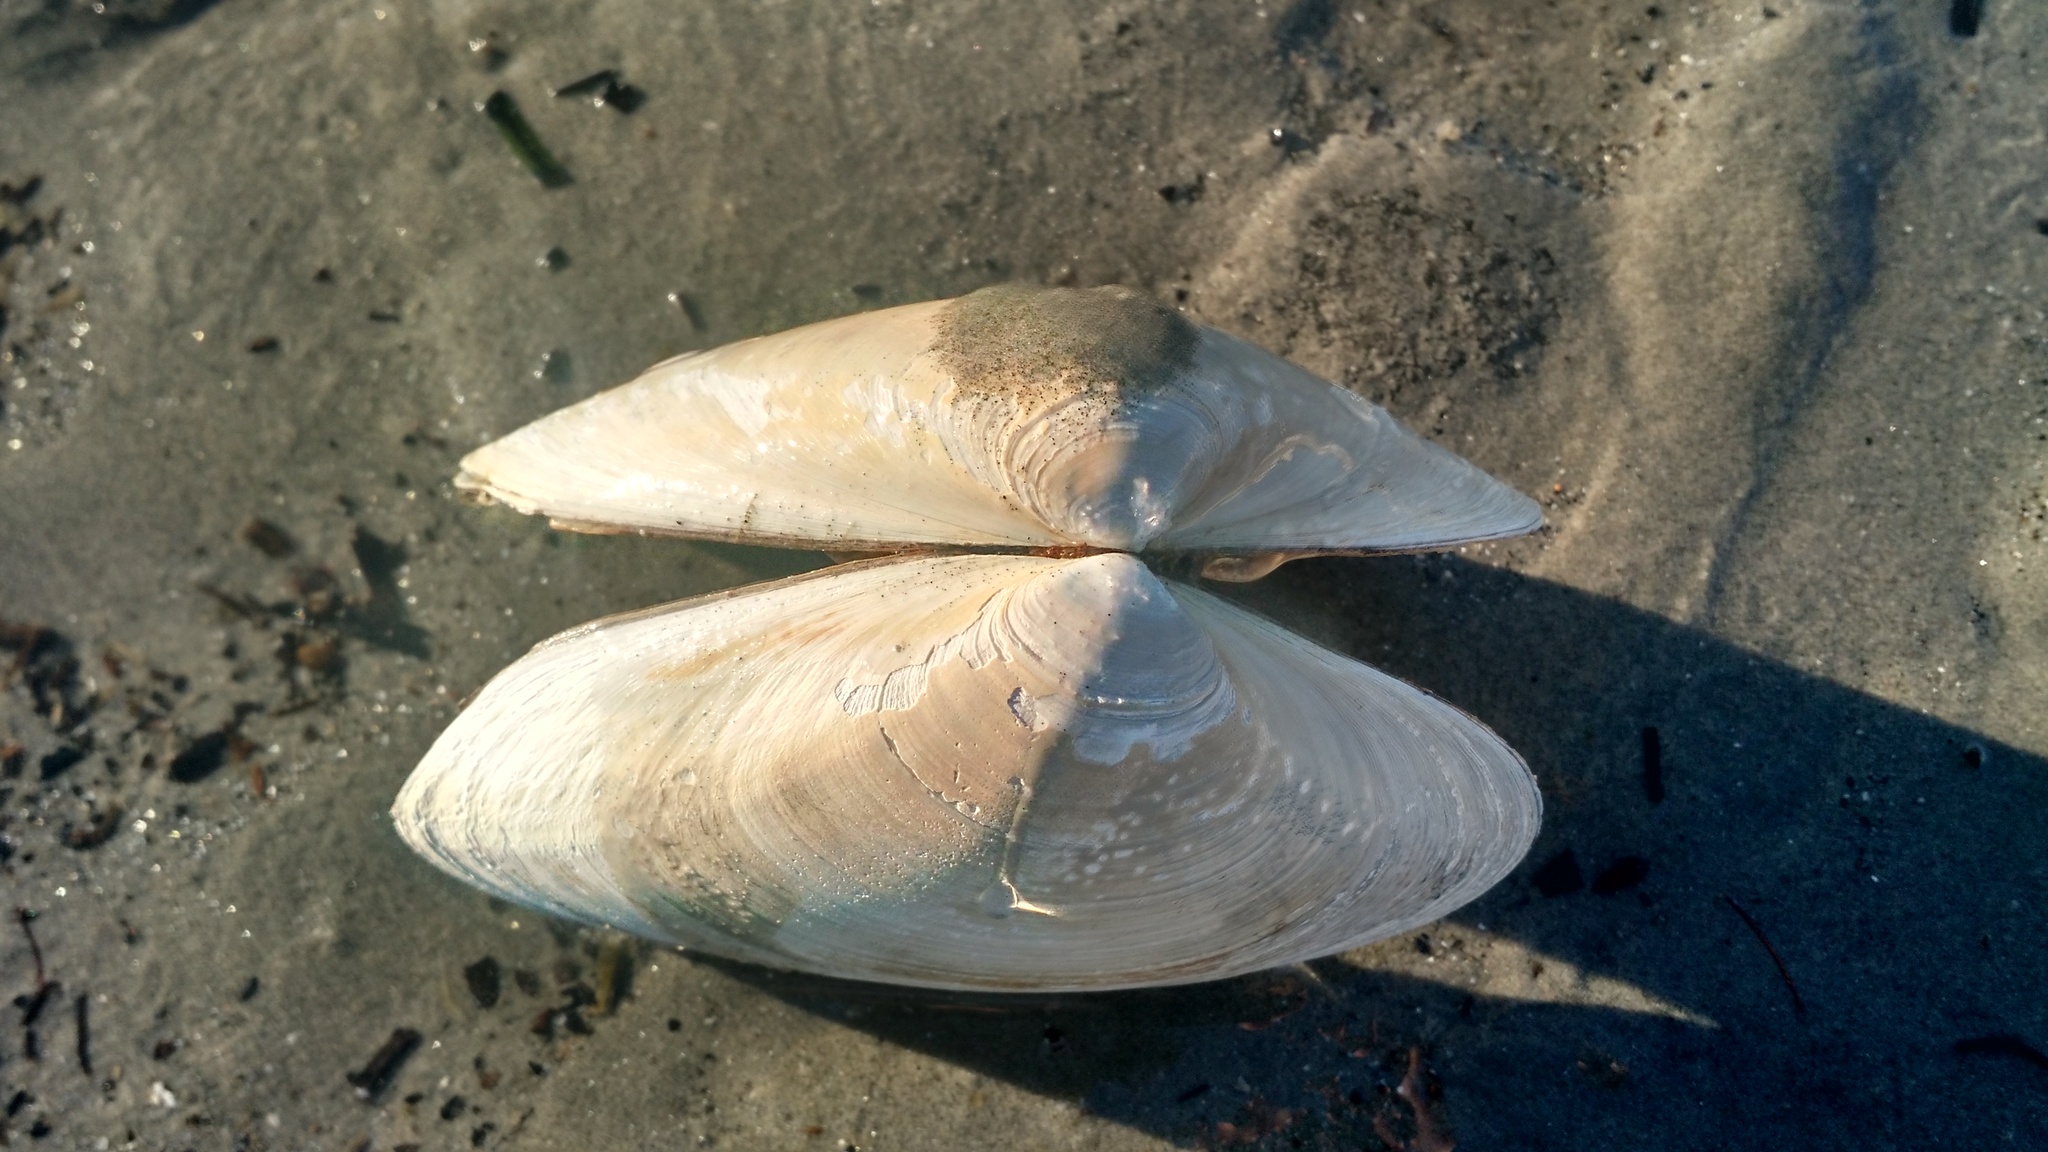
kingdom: Animalia
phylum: Mollusca
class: Bivalvia
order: Venerida
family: Mactridae
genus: Spisula
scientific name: Spisula solidissima
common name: Atlantic surf clam
